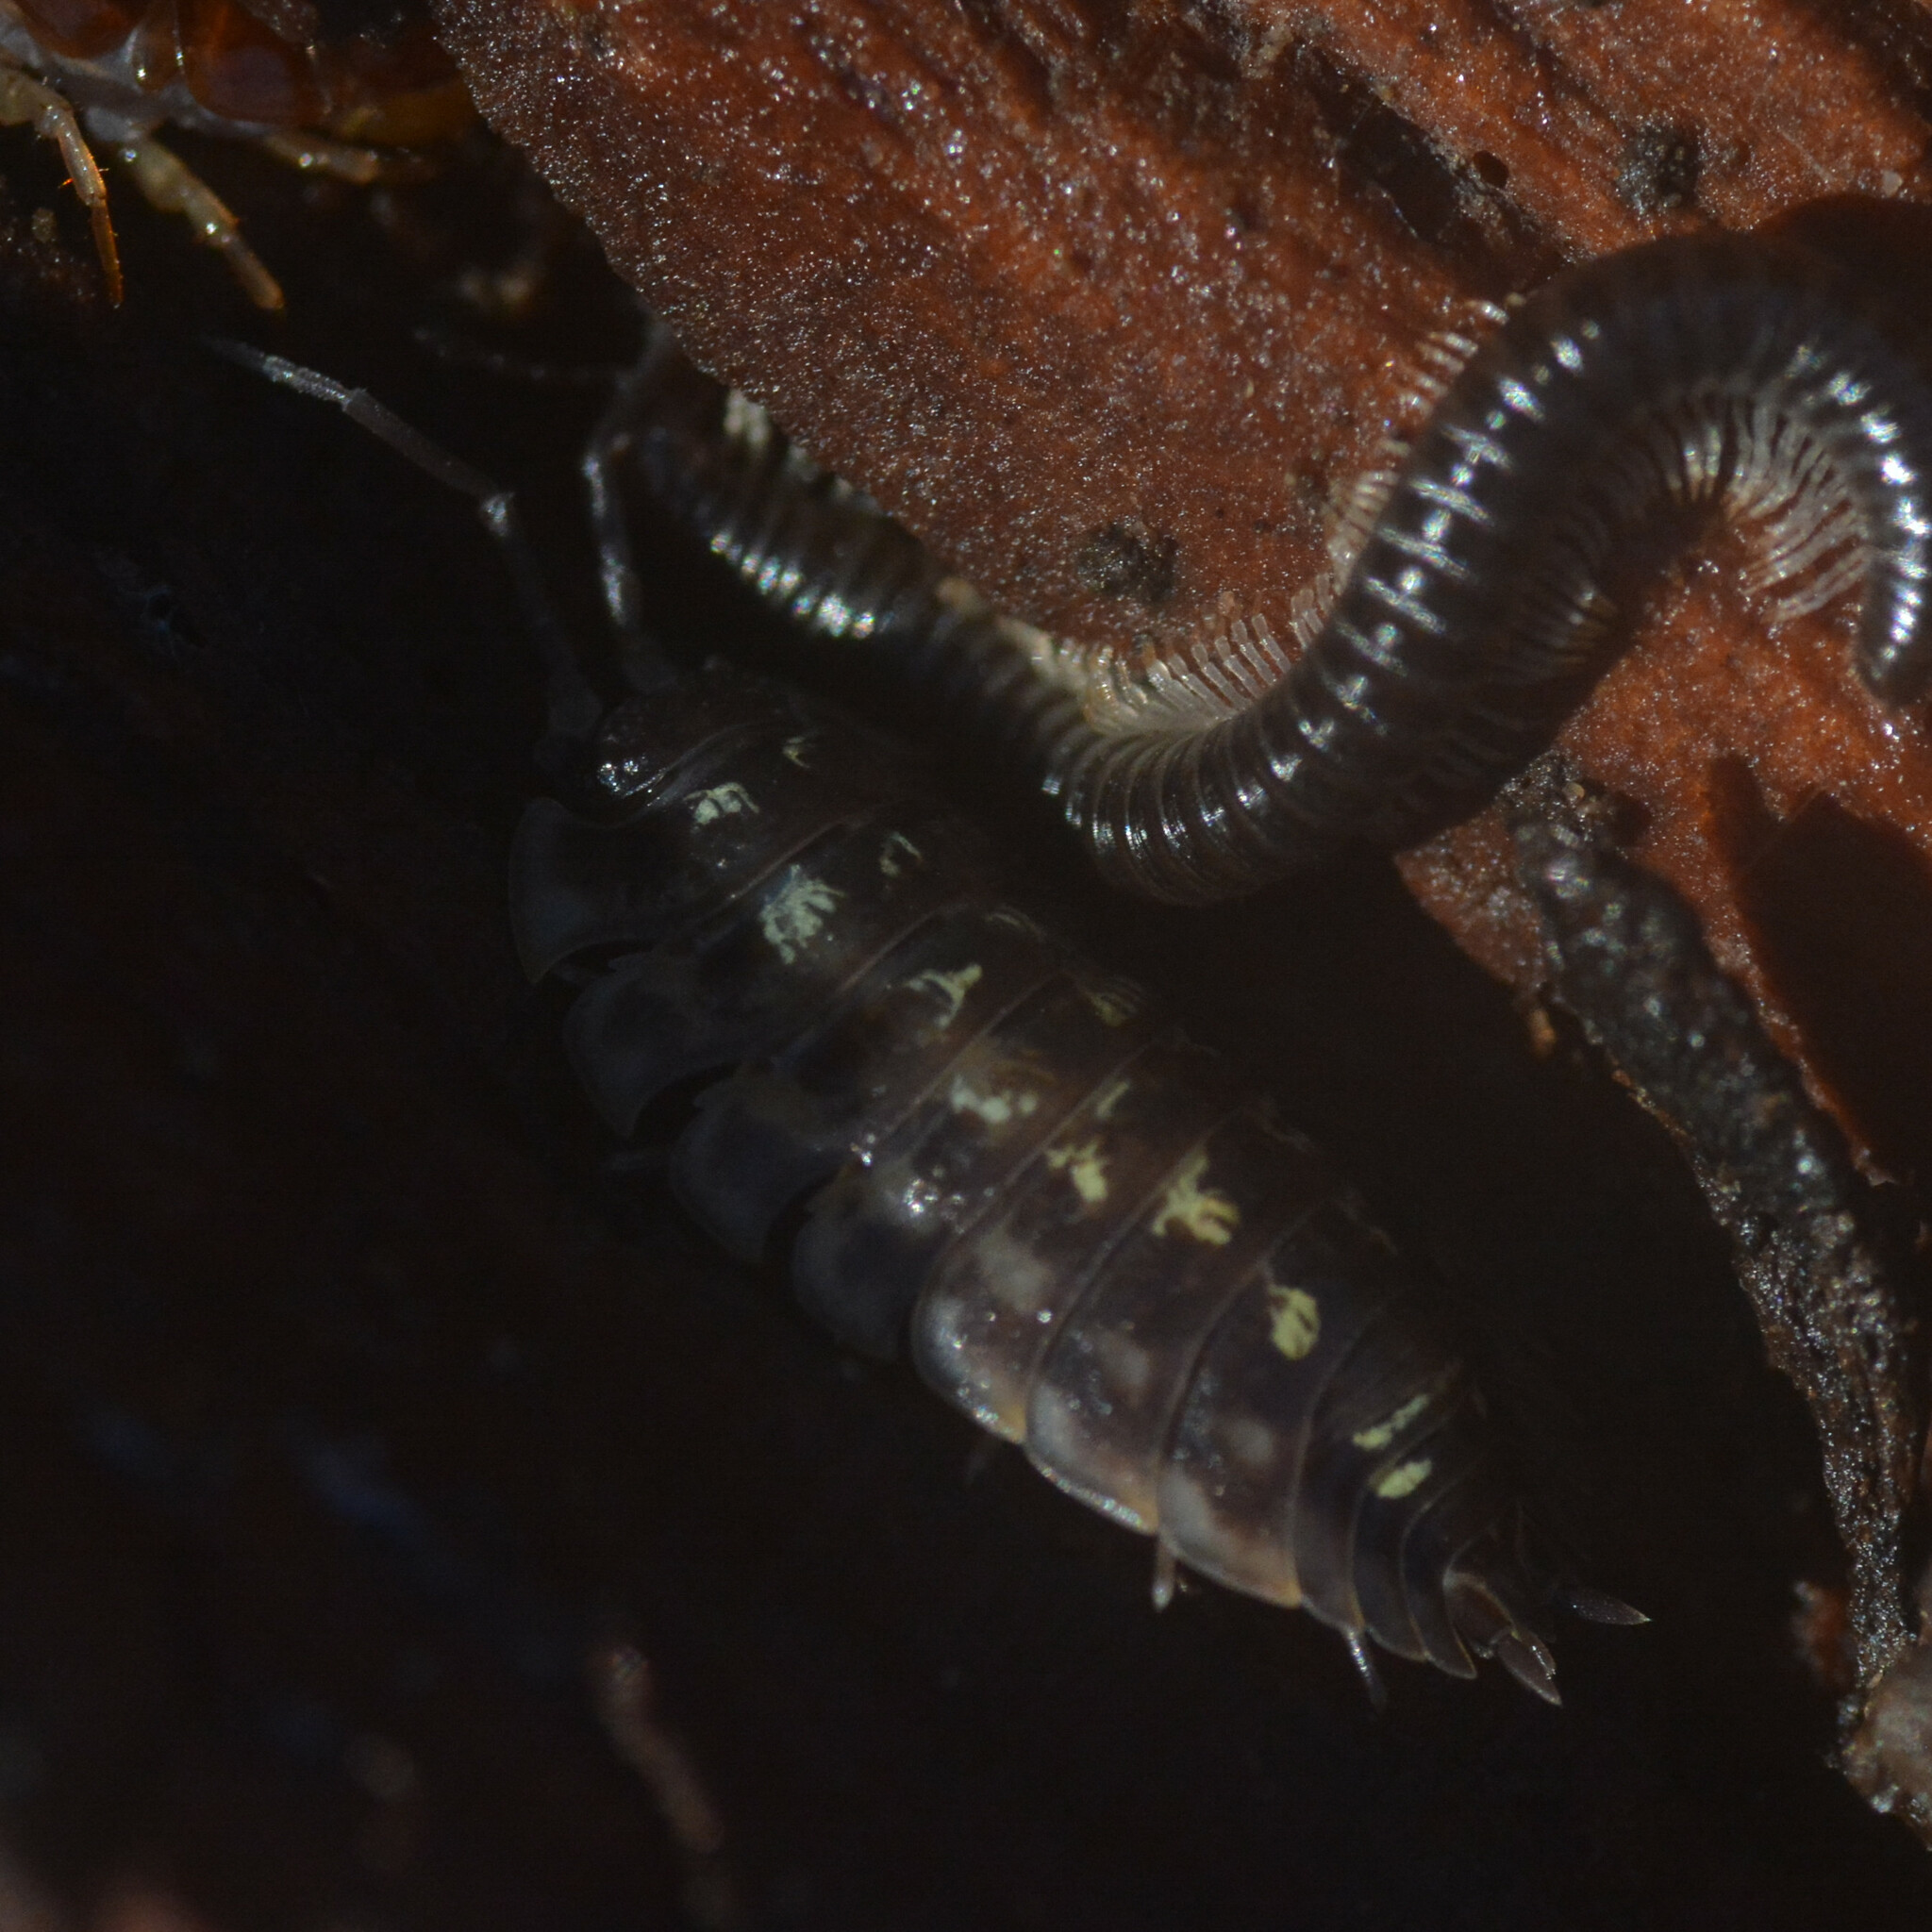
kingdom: Animalia
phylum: Arthropoda
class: Diplopoda
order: Julida
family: Julidae
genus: Tachypodoiulus
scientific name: Tachypodoiulus niger
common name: White-legged snake millipede
